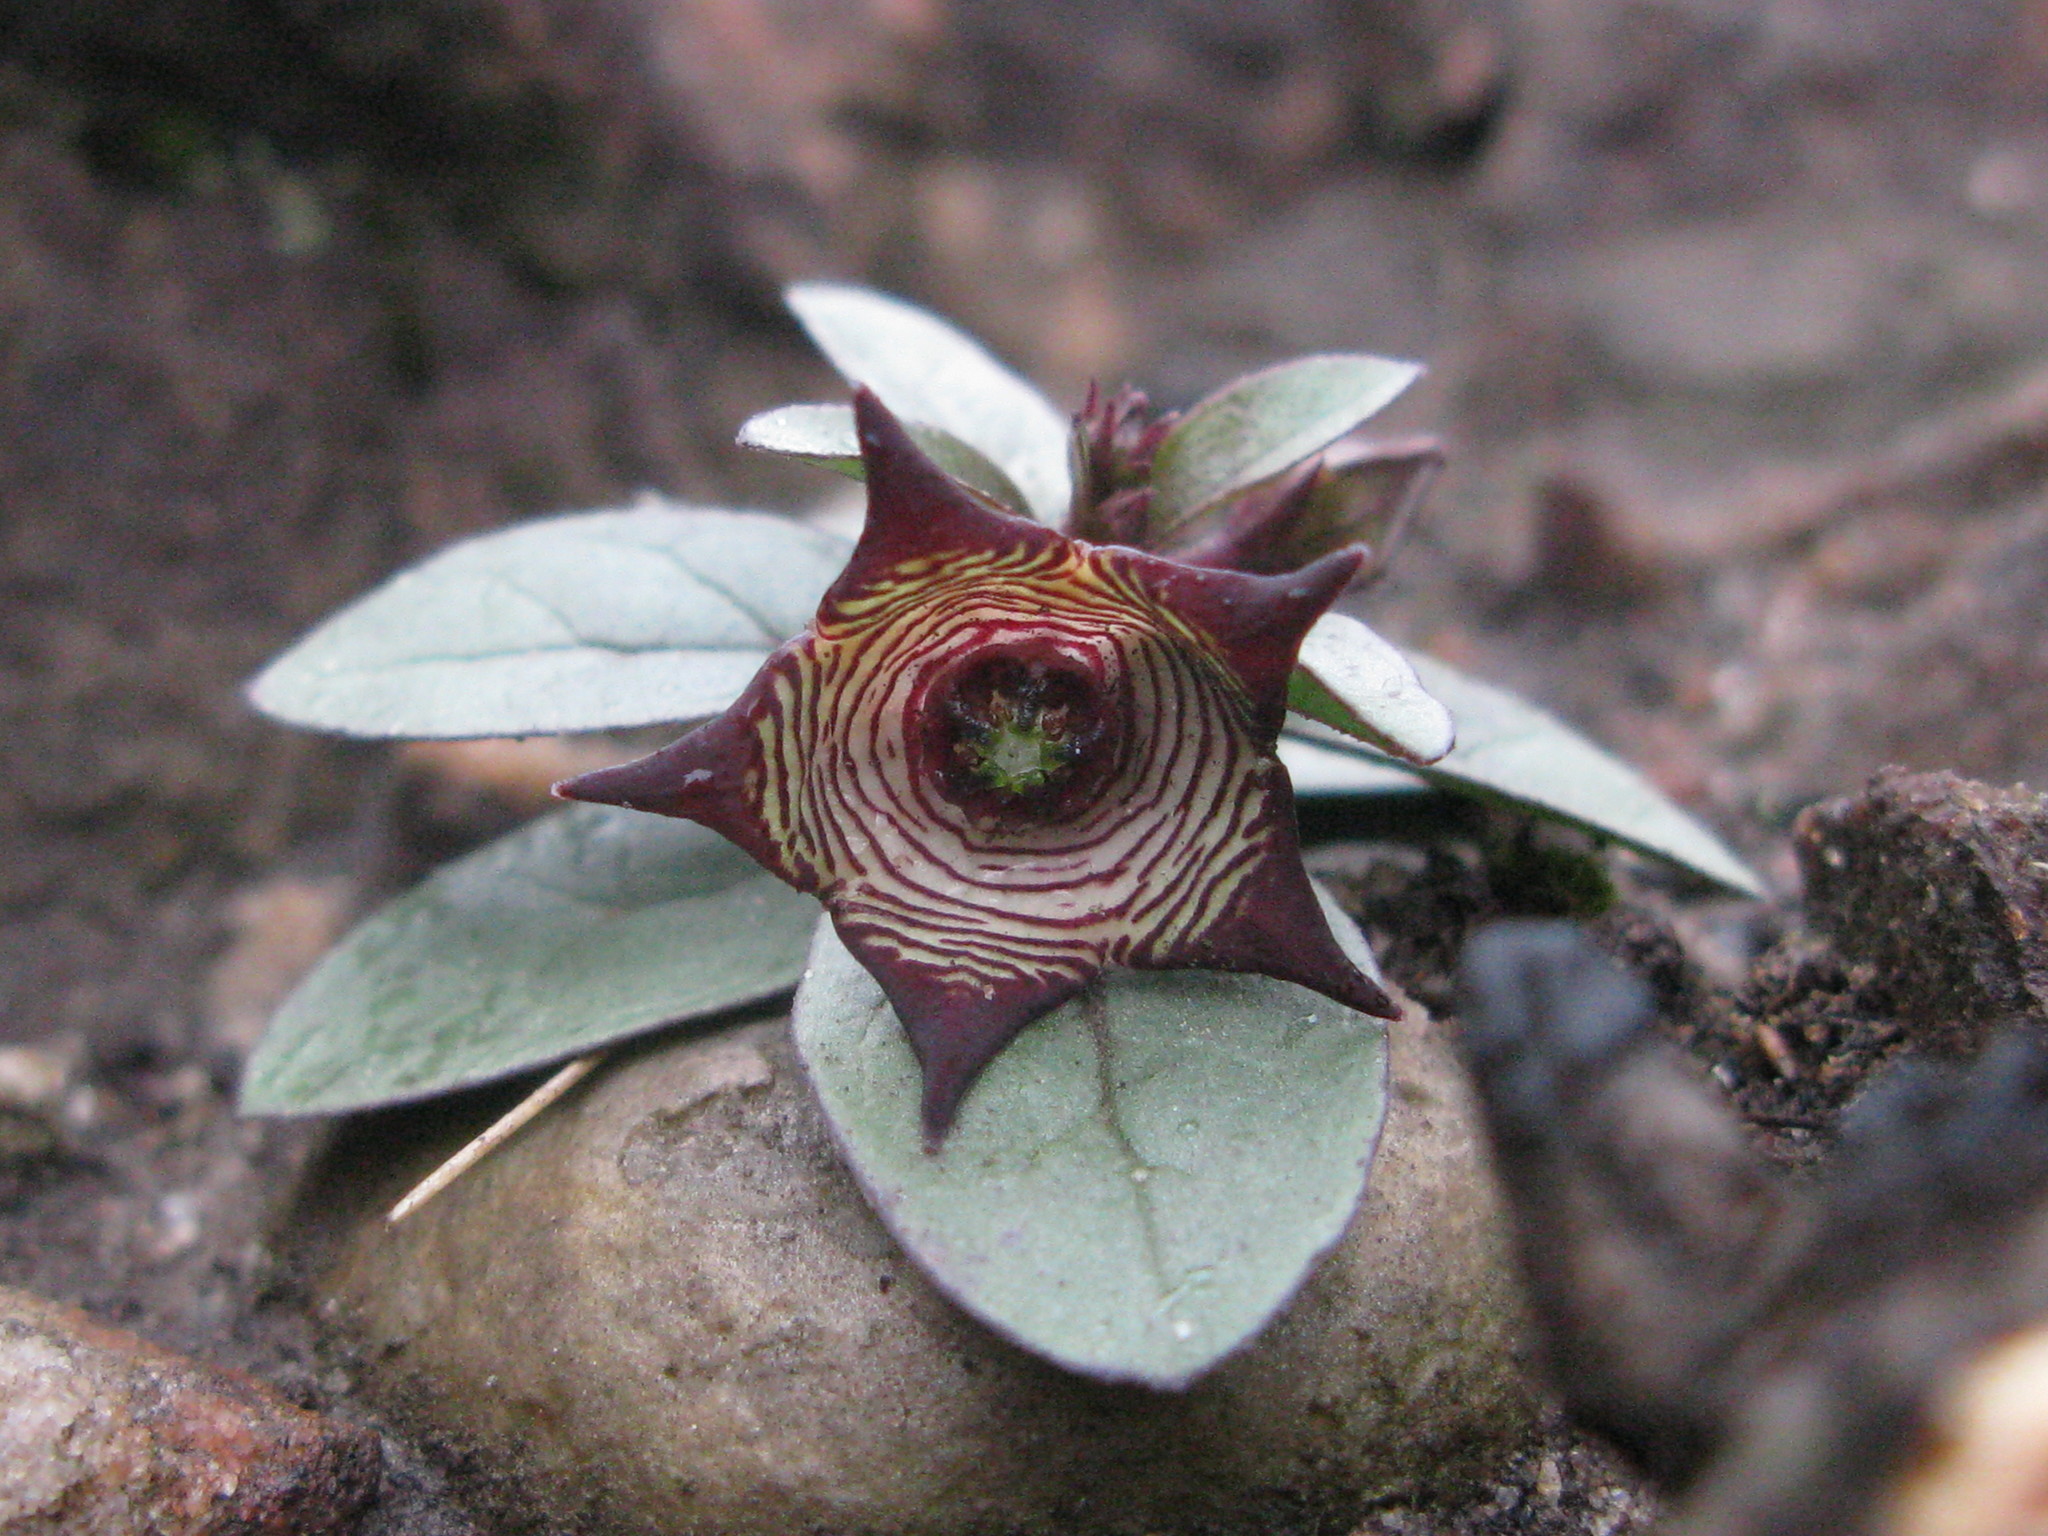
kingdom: Plantae
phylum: Tracheophyta
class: Magnoliopsida
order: Gentianales
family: Apocynaceae
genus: Ceropegia
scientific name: Ceropegia modestantha
